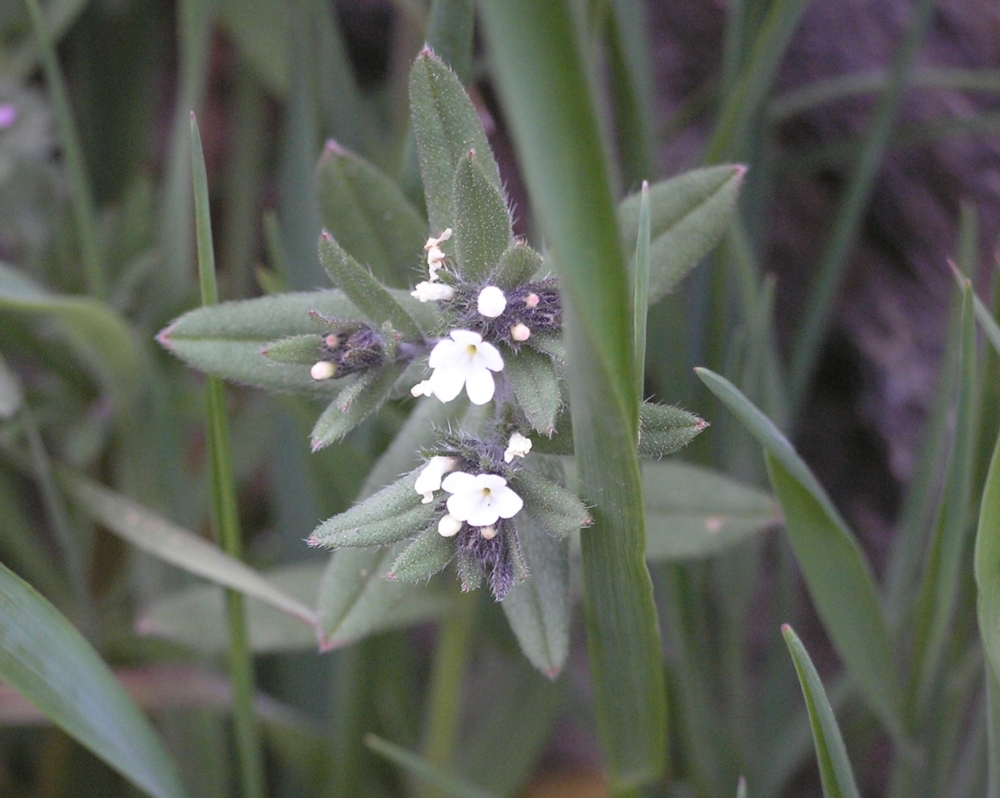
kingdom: Plantae
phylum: Tracheophyta
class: Magnoliopsida
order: Boraginales
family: Boraginaceae
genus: Buglossoides
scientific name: Buglossoides arvensis
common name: Corn gromwell
